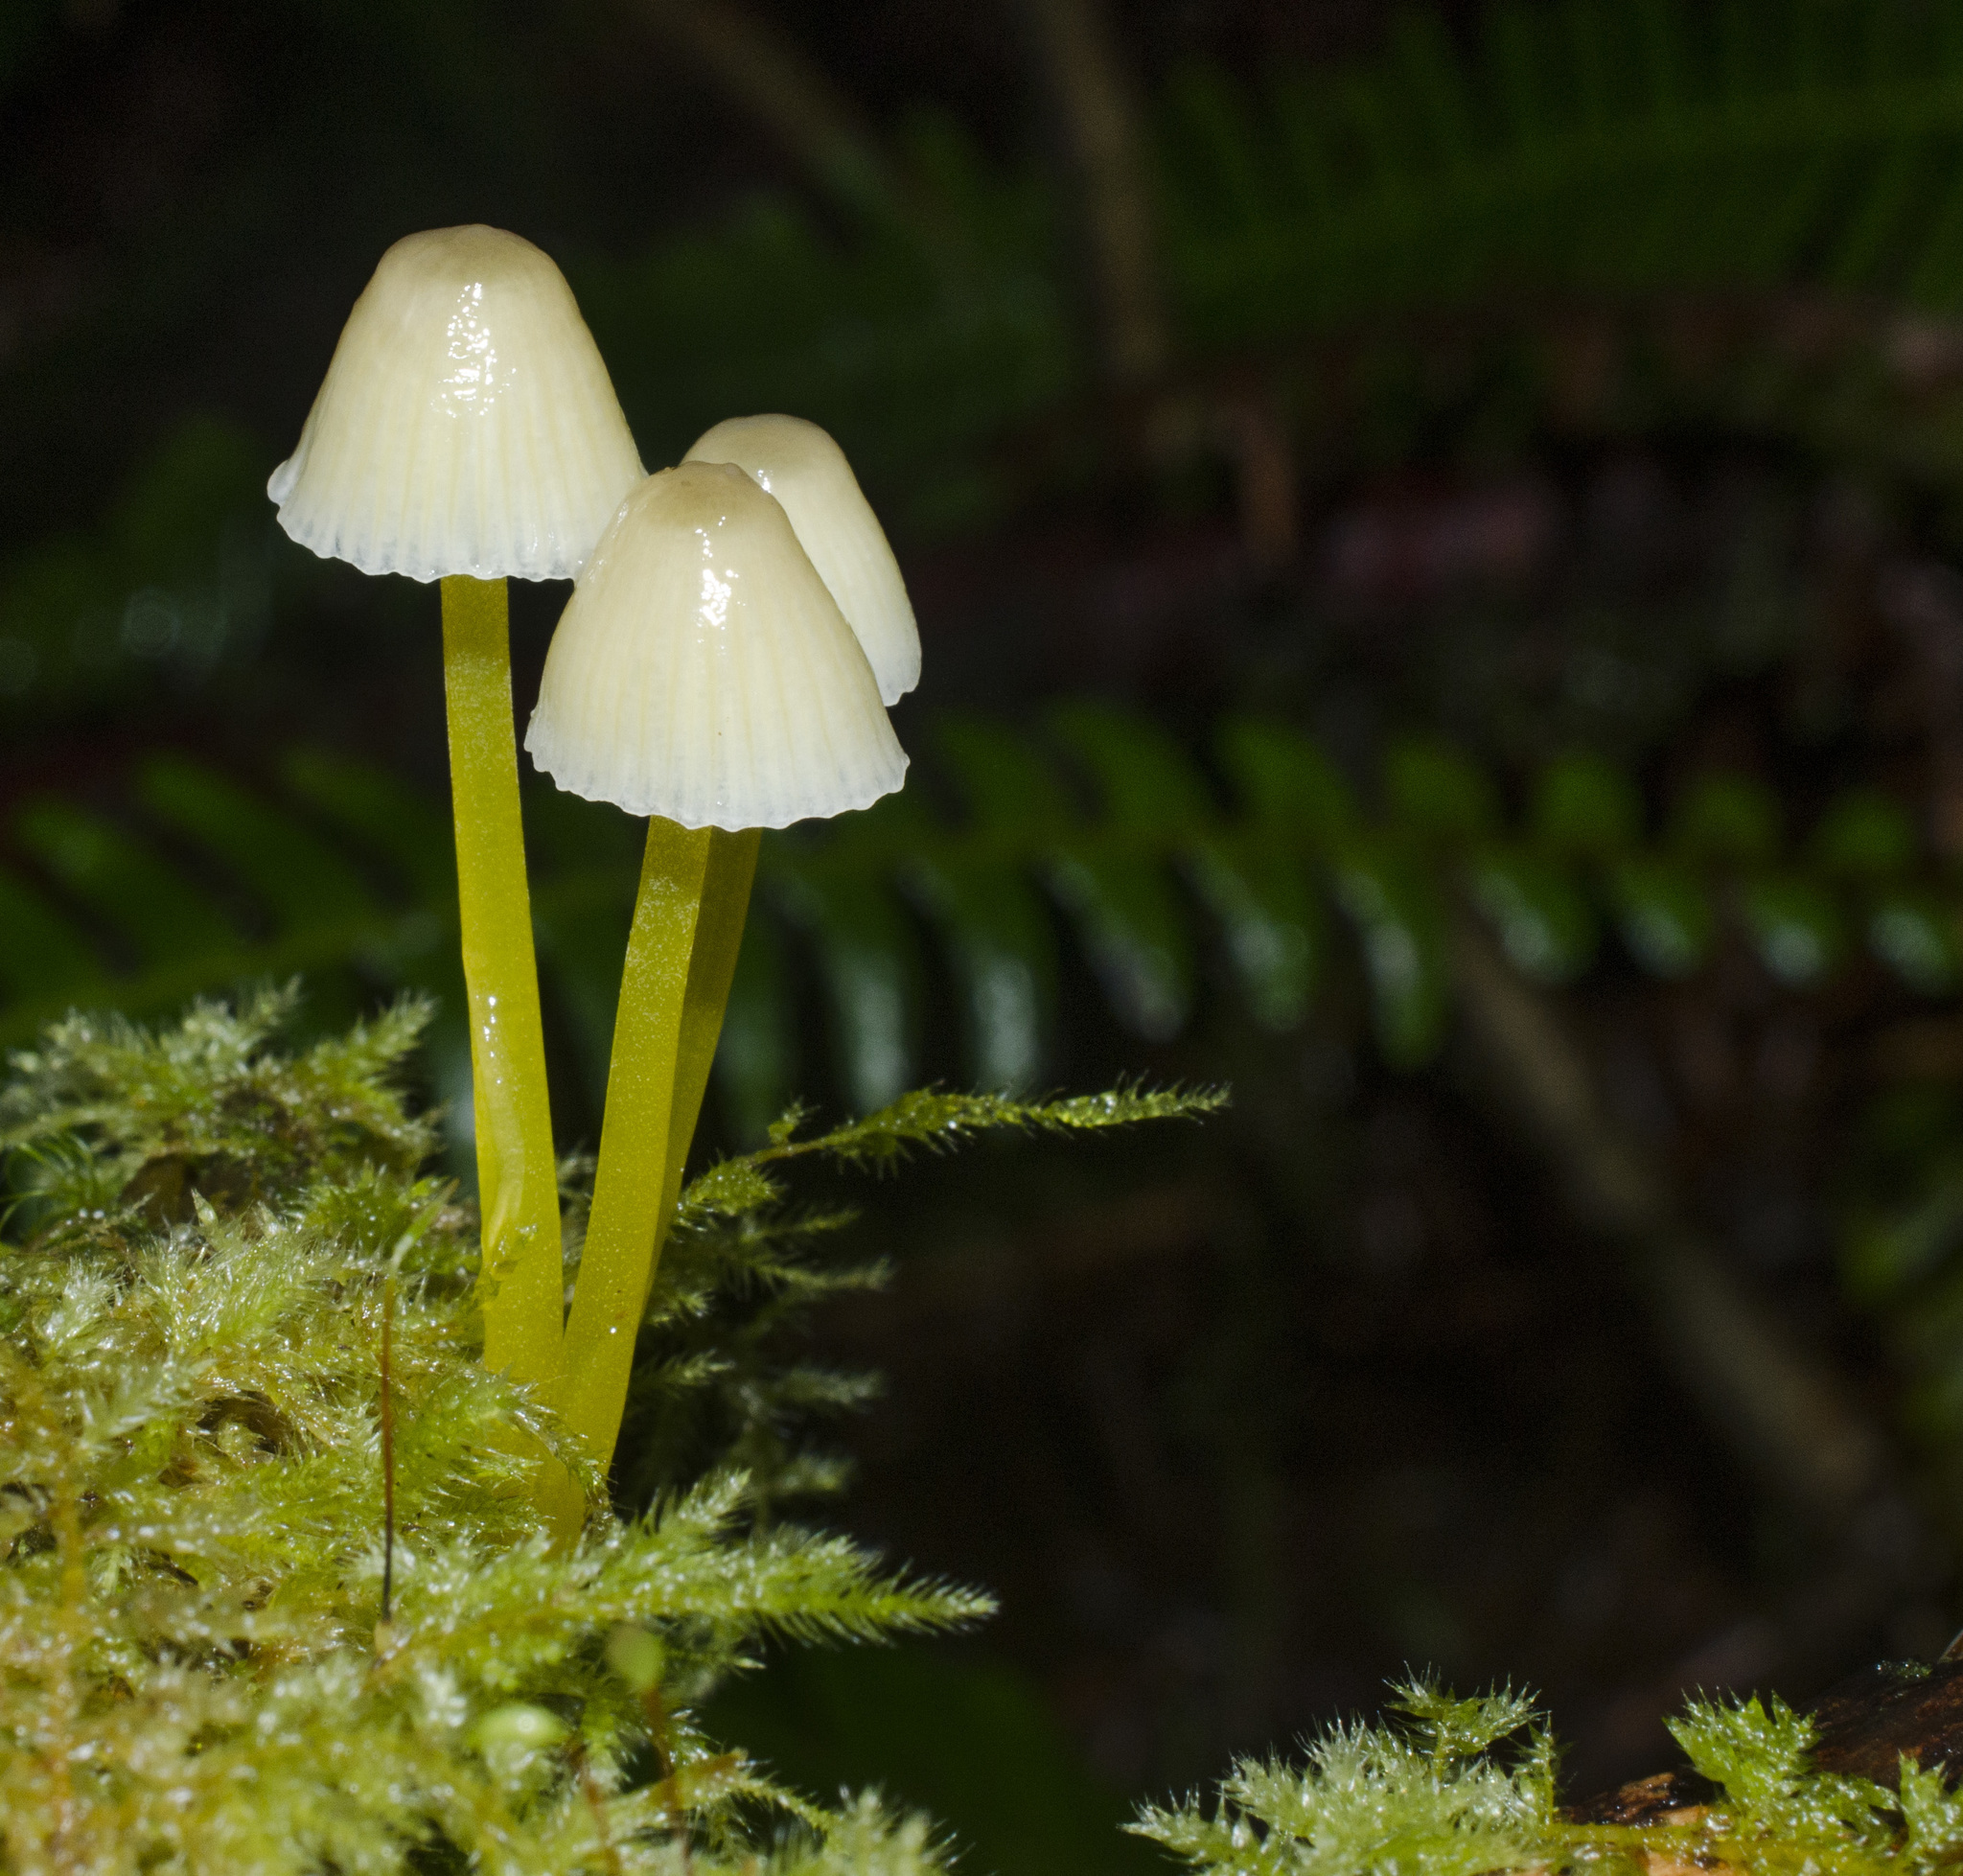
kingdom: Fungi
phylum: Basidiomycota
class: Agaricomycetes
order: Agaricales
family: Mycenaceae
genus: Mycena
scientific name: Mycena epipterygia
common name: Yellowleg bonnet
